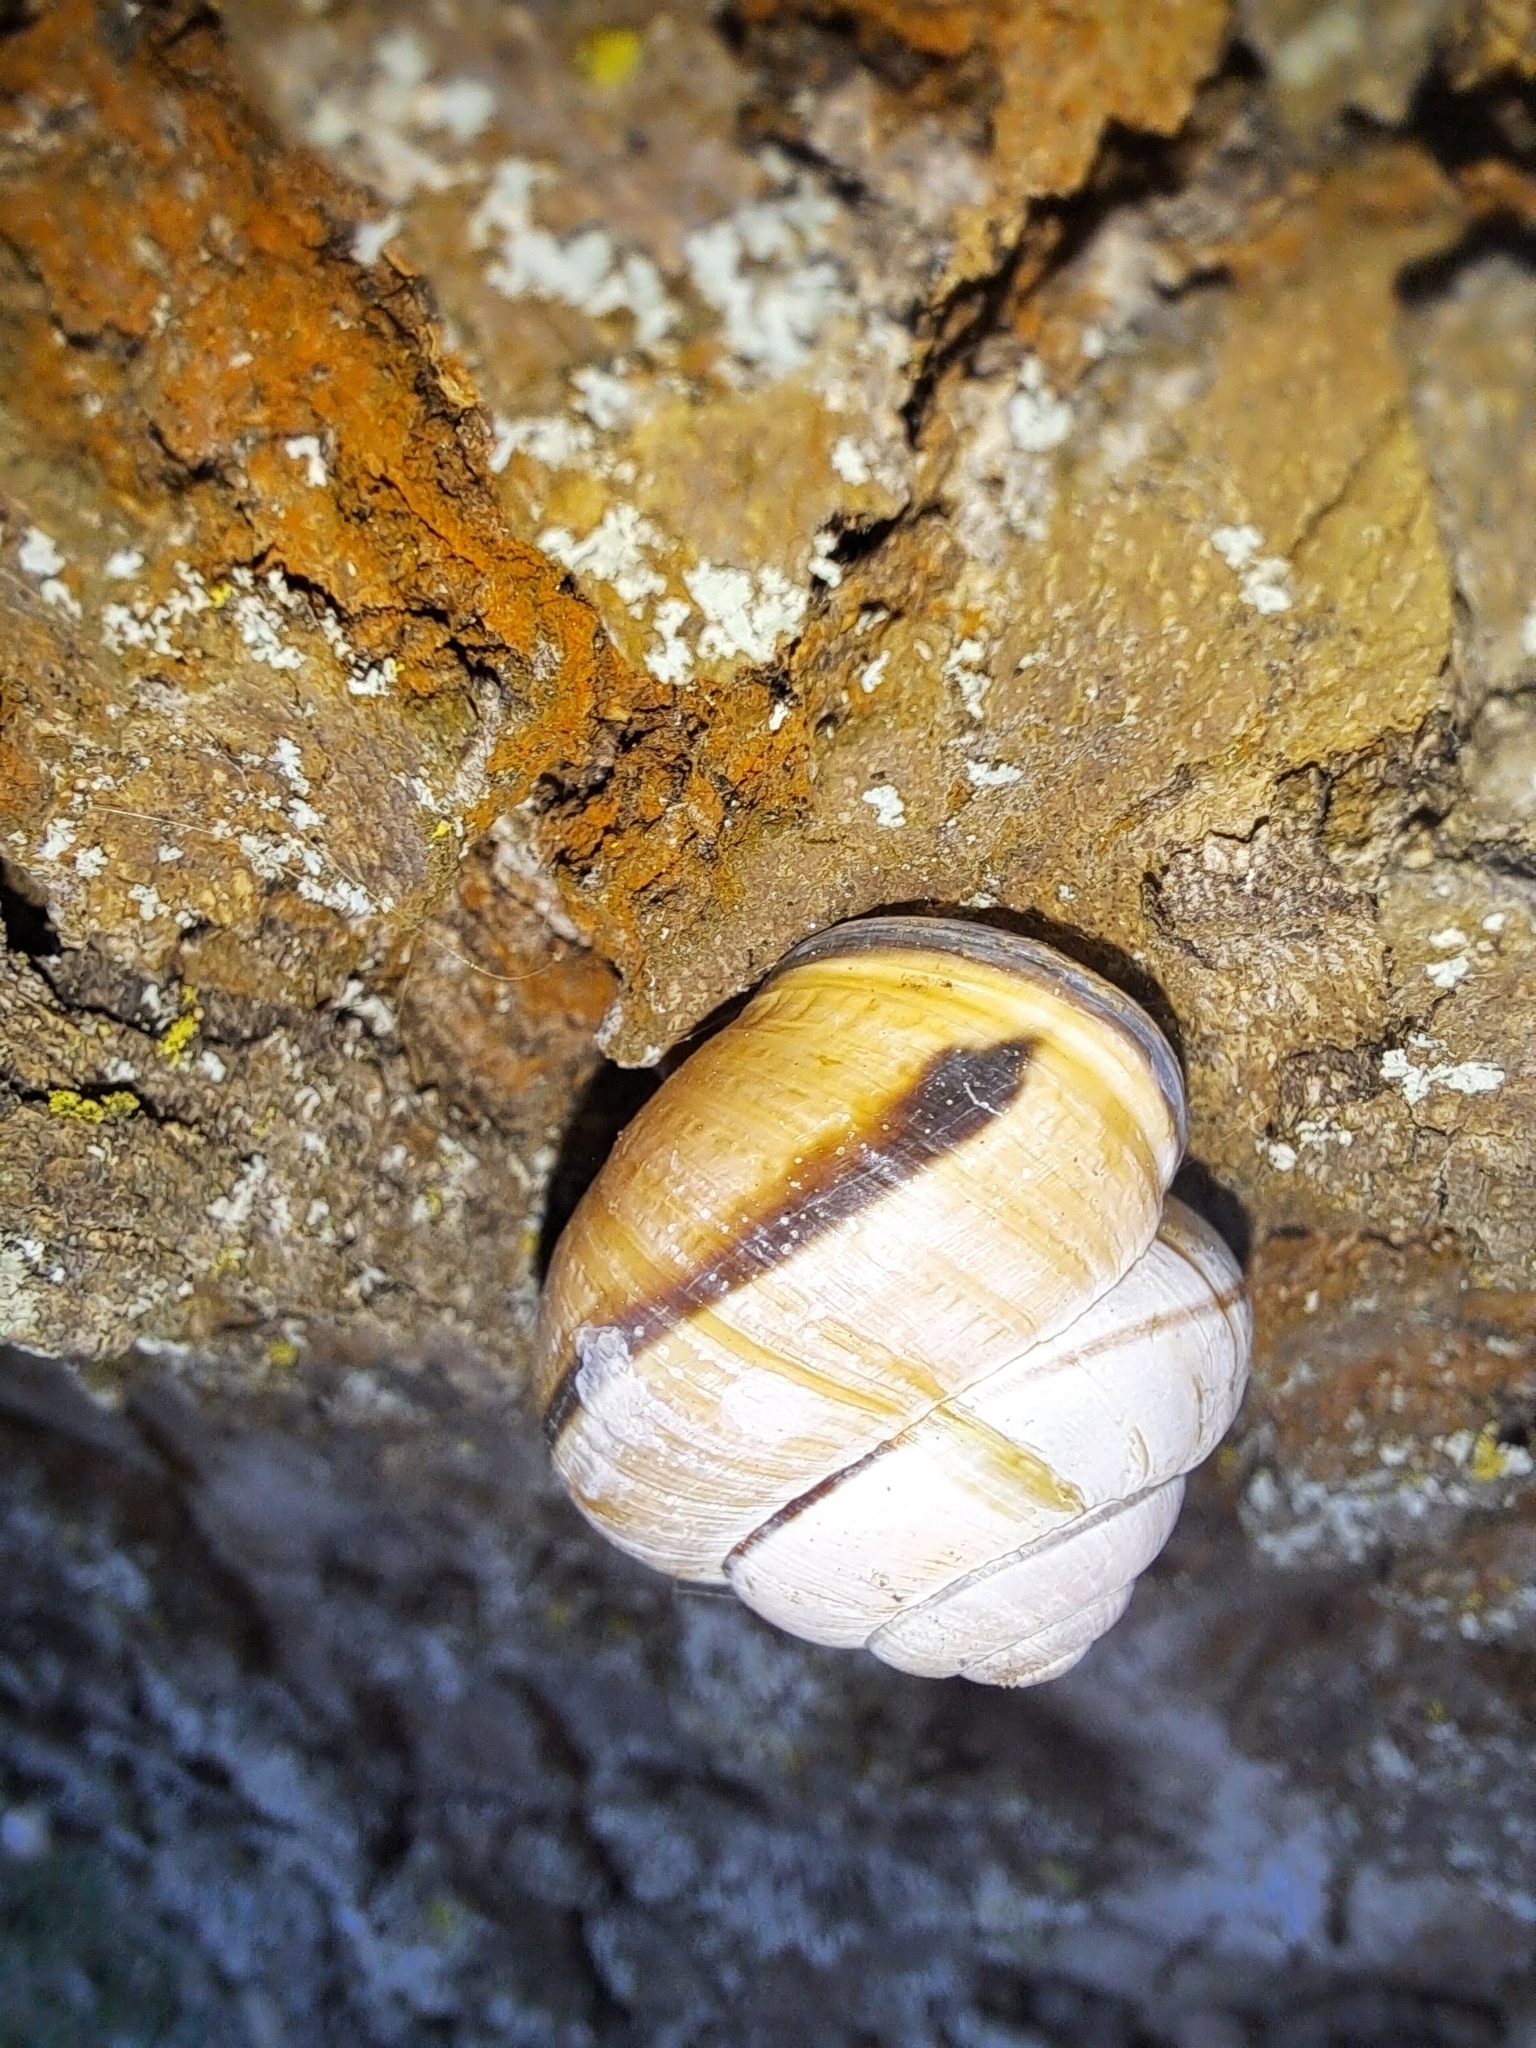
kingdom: Animalia
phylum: Mollusca
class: Gastropoda
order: Stylommatophora
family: Helicidae
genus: Cepaea
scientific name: Cepaea nemoralis
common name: Grovesnail
